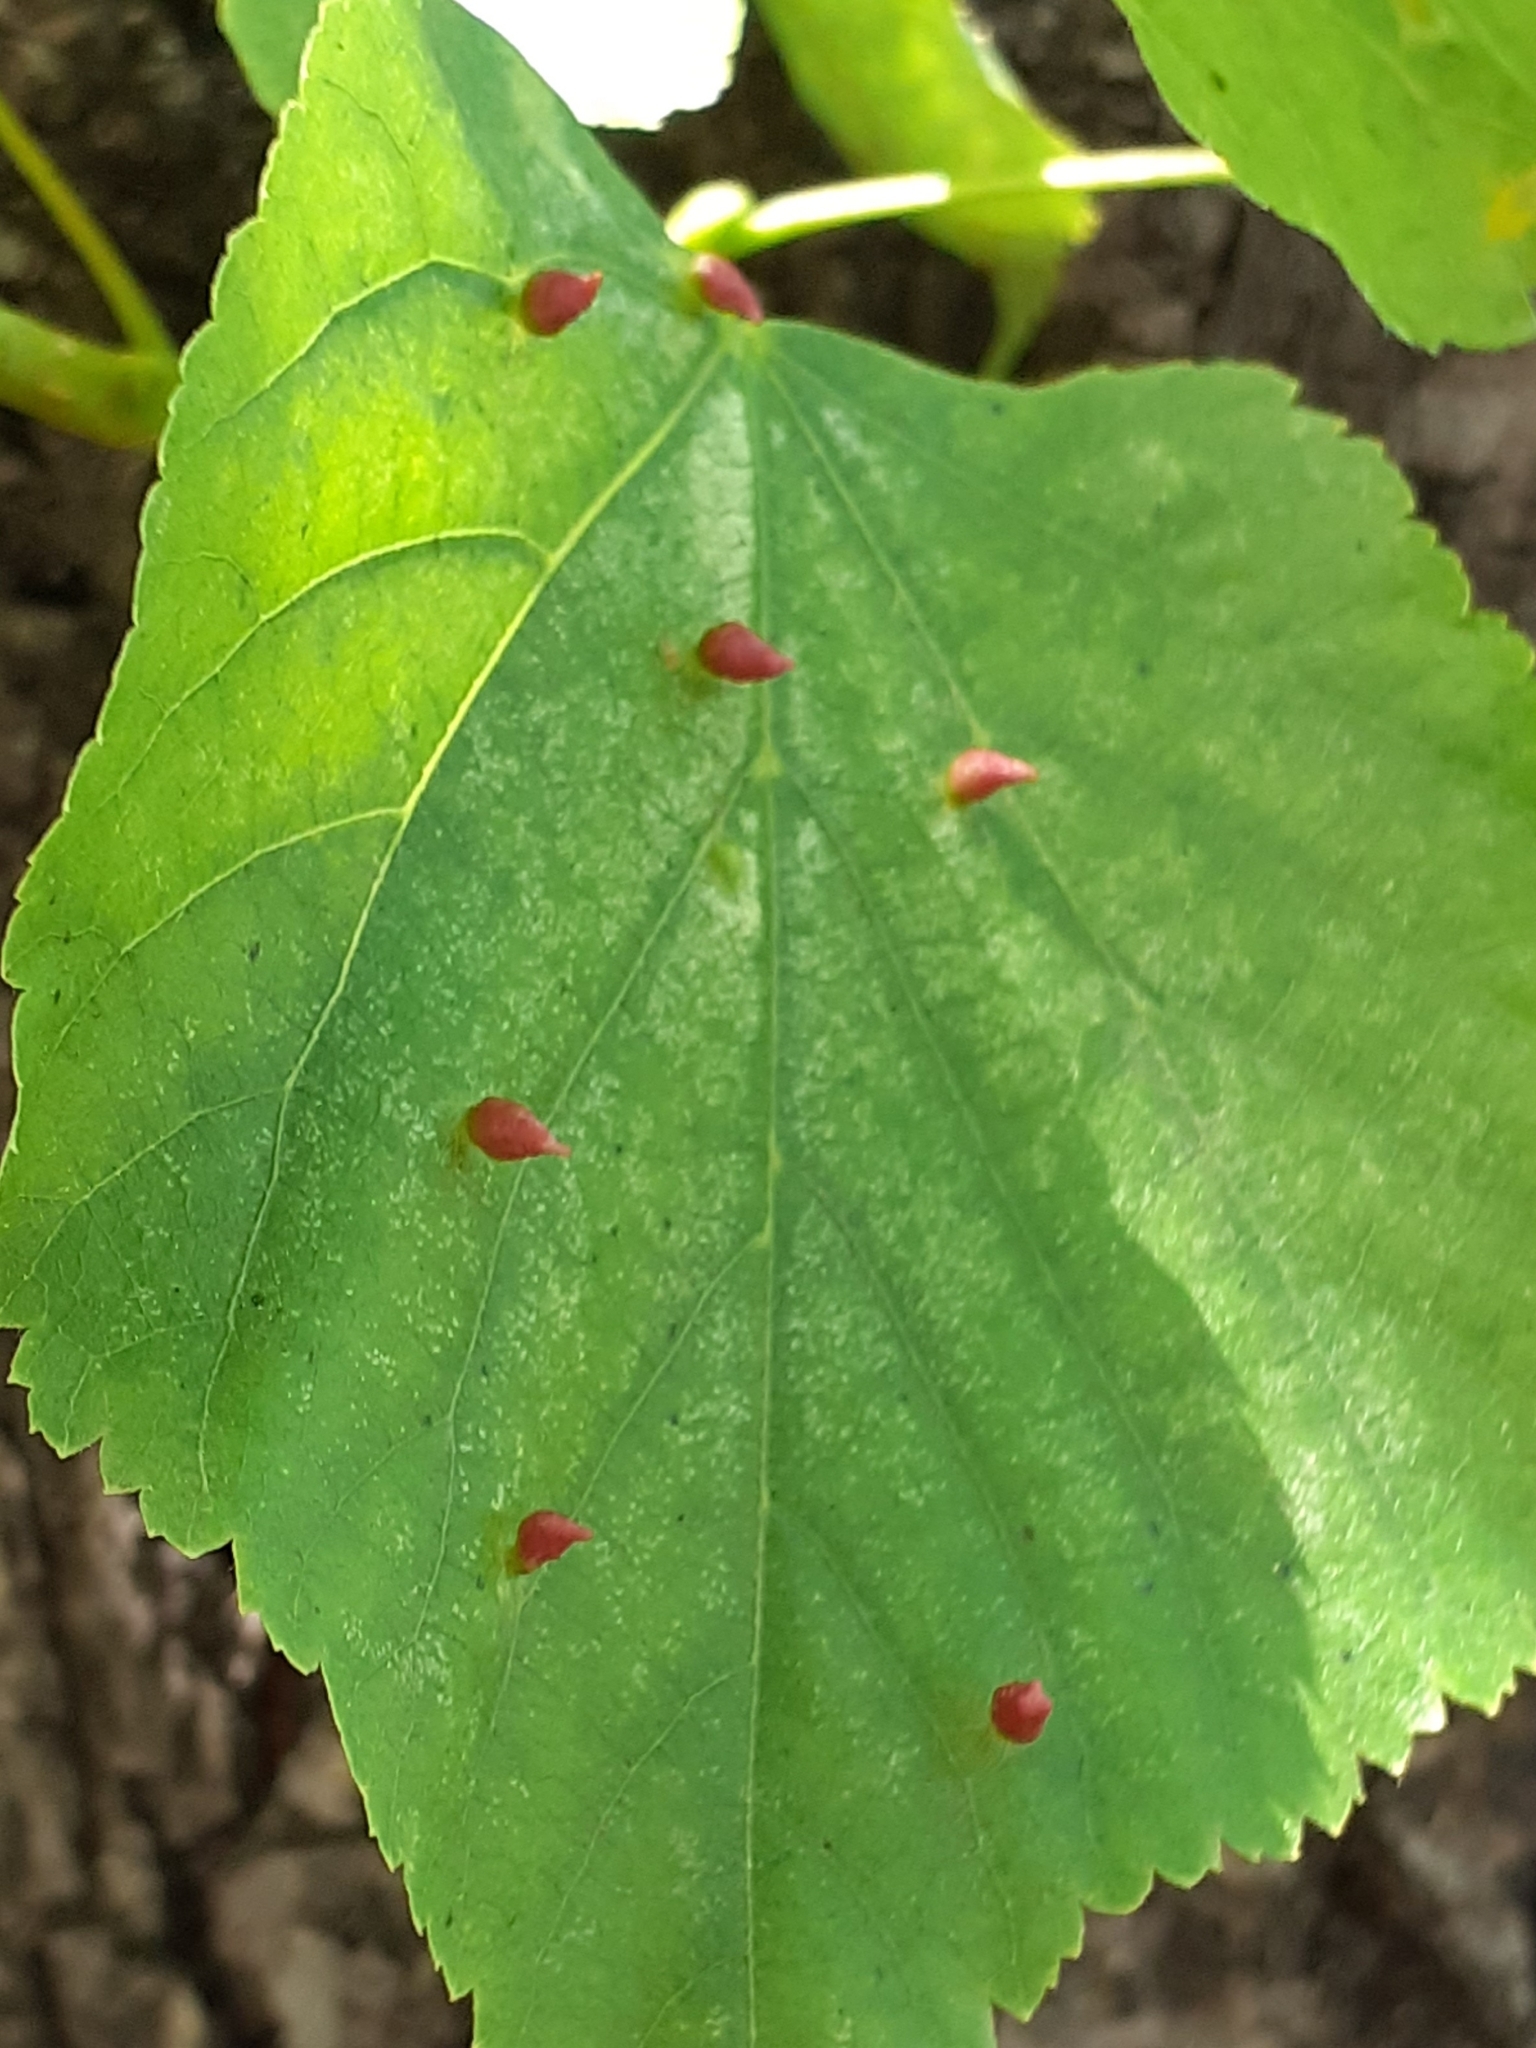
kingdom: Animalia
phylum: Arthropoda
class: Arachnida
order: Trombidiformes
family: Eriophyidae
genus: Eriophyes
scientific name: Eriophyes tiliae
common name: Red nail gall mite
